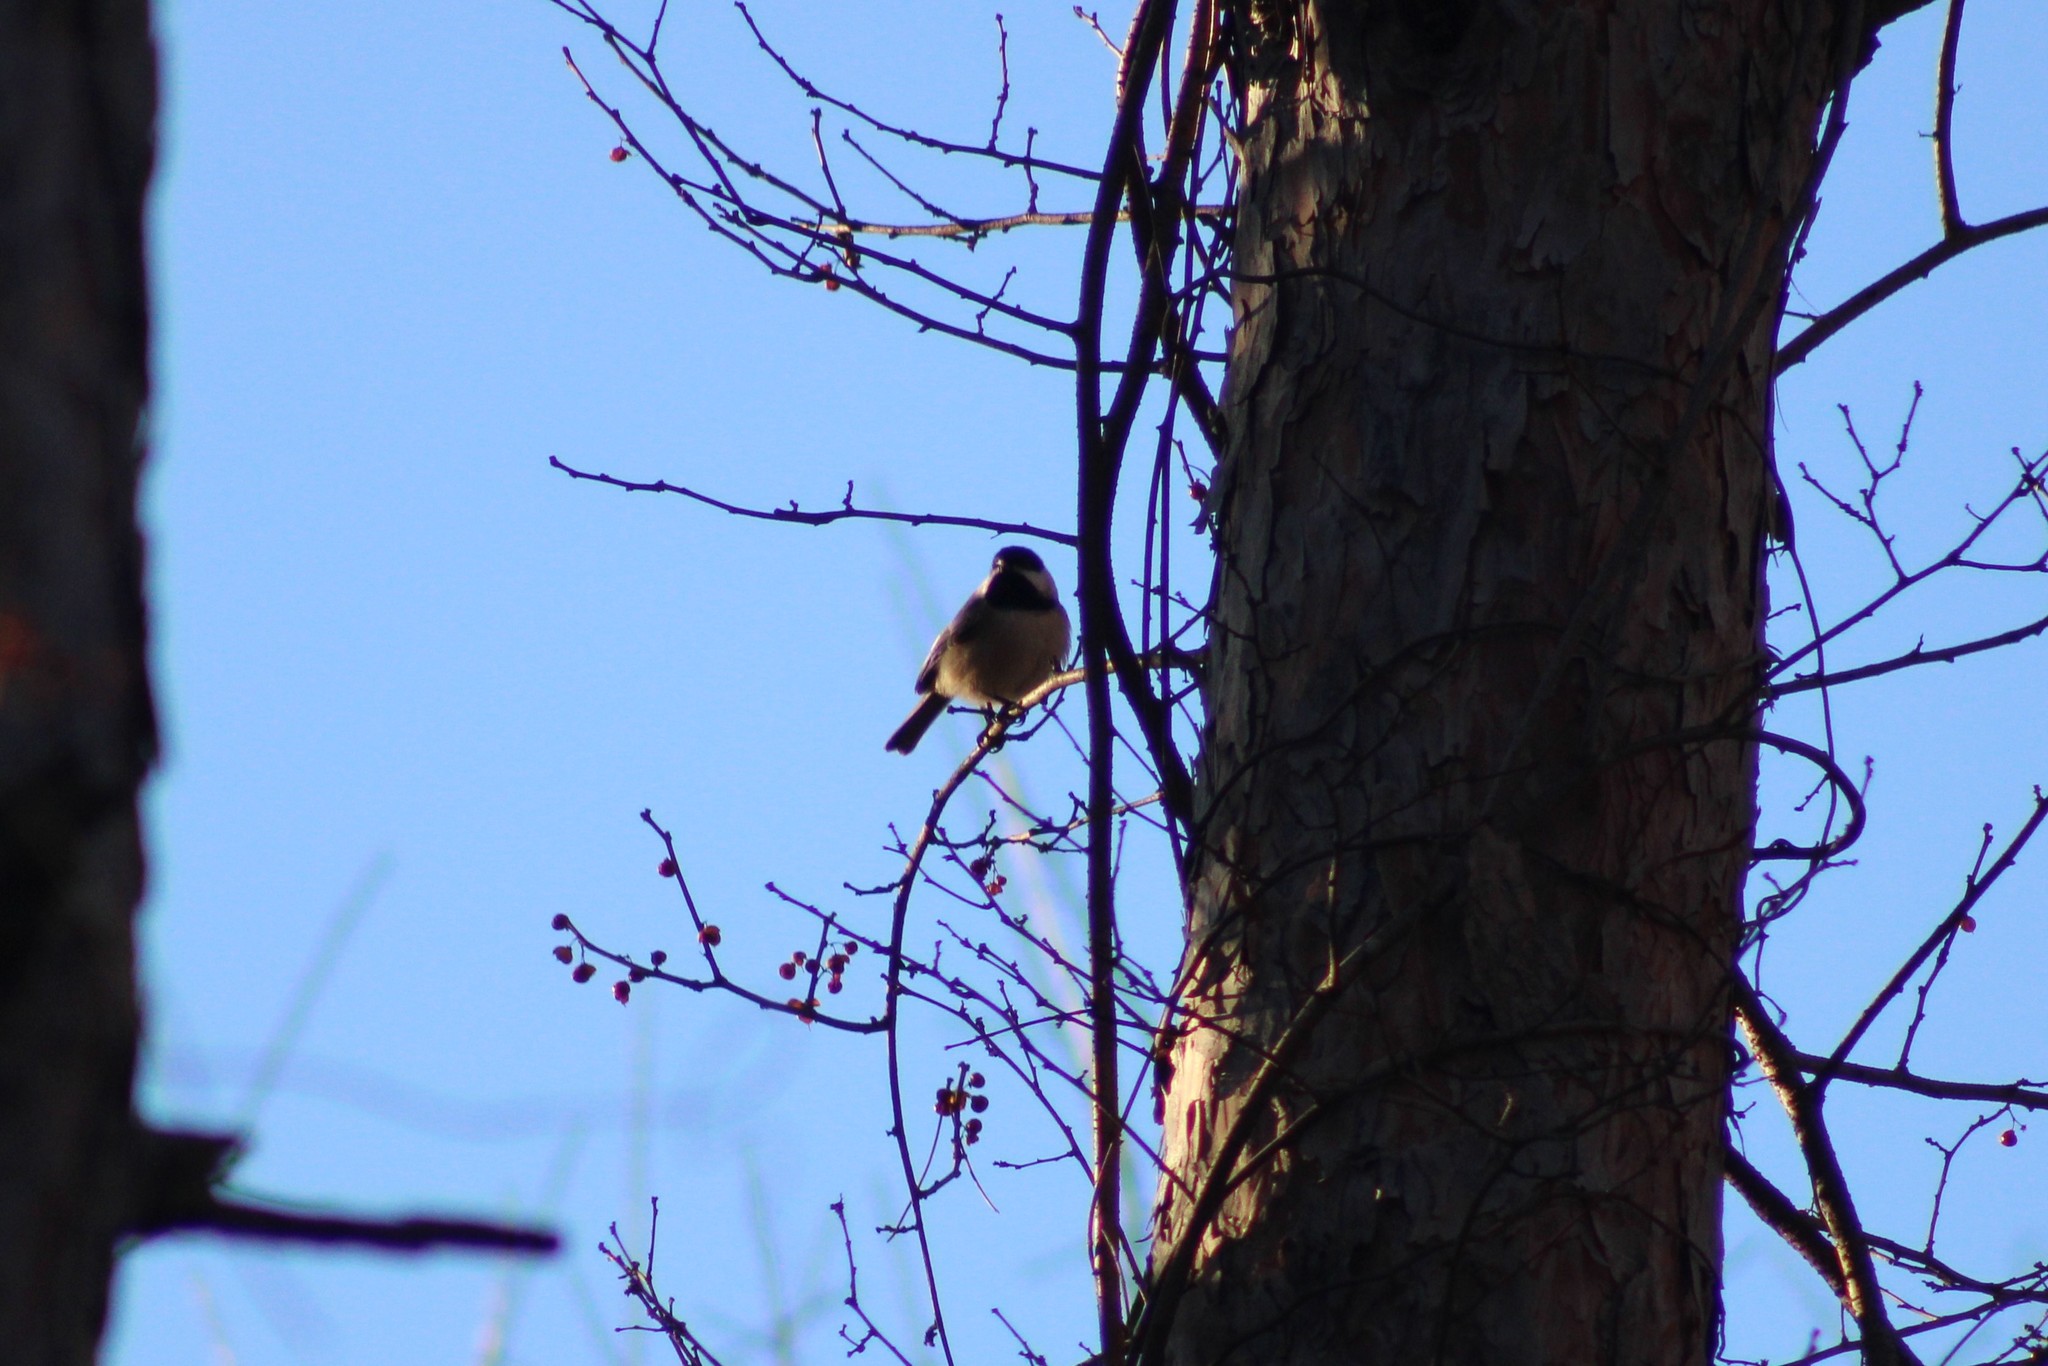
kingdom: Animalia
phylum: Chordata
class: Aves
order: Passeriformes
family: Paridae
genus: Poecile
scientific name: Poecile atricapillus
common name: Black-capped chickadee
